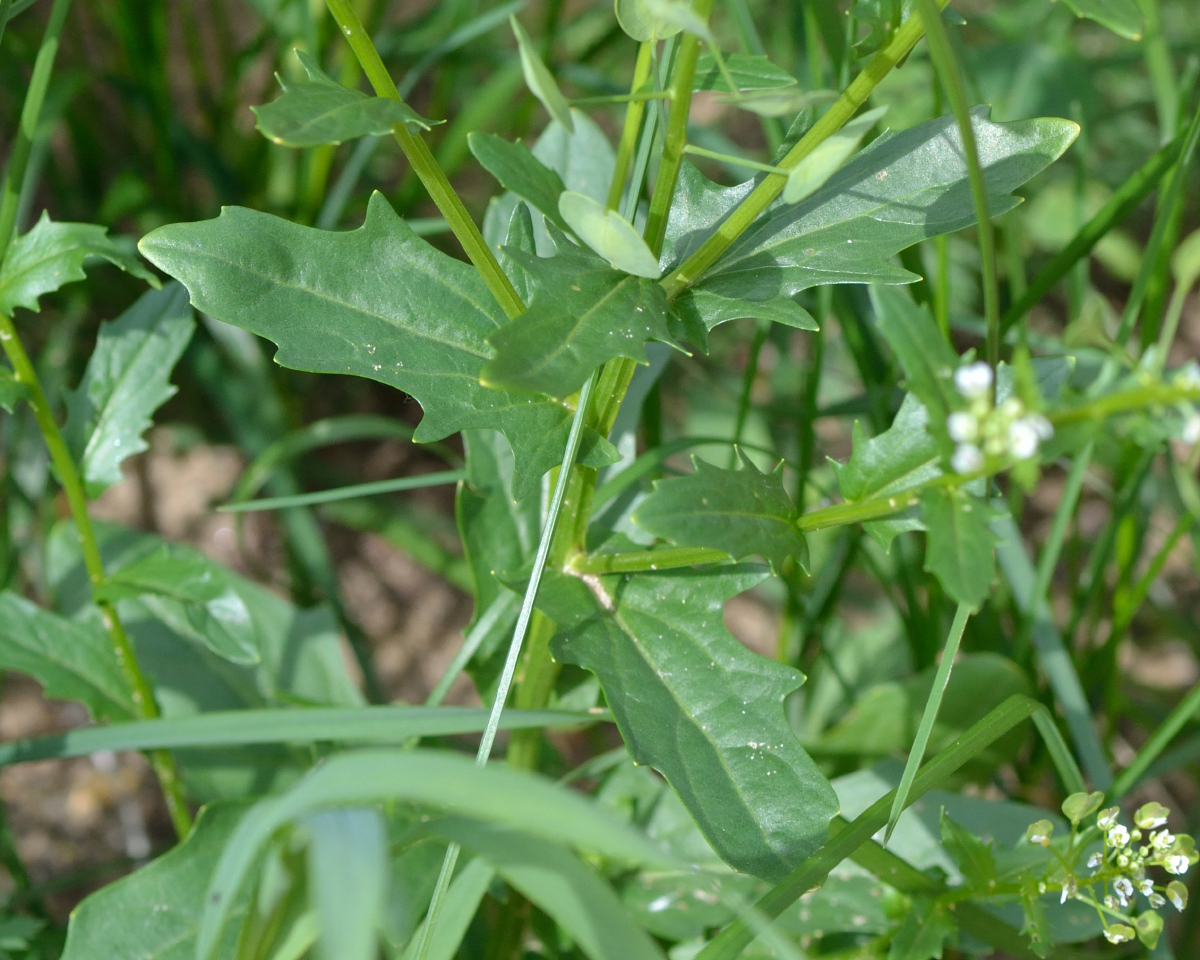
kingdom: Plantae
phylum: Tracheophyta
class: Magnoliopsida
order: Brassicales
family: Brassicaceae
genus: Thlaspi
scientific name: Thlaspi arvense
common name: Field pennycress
